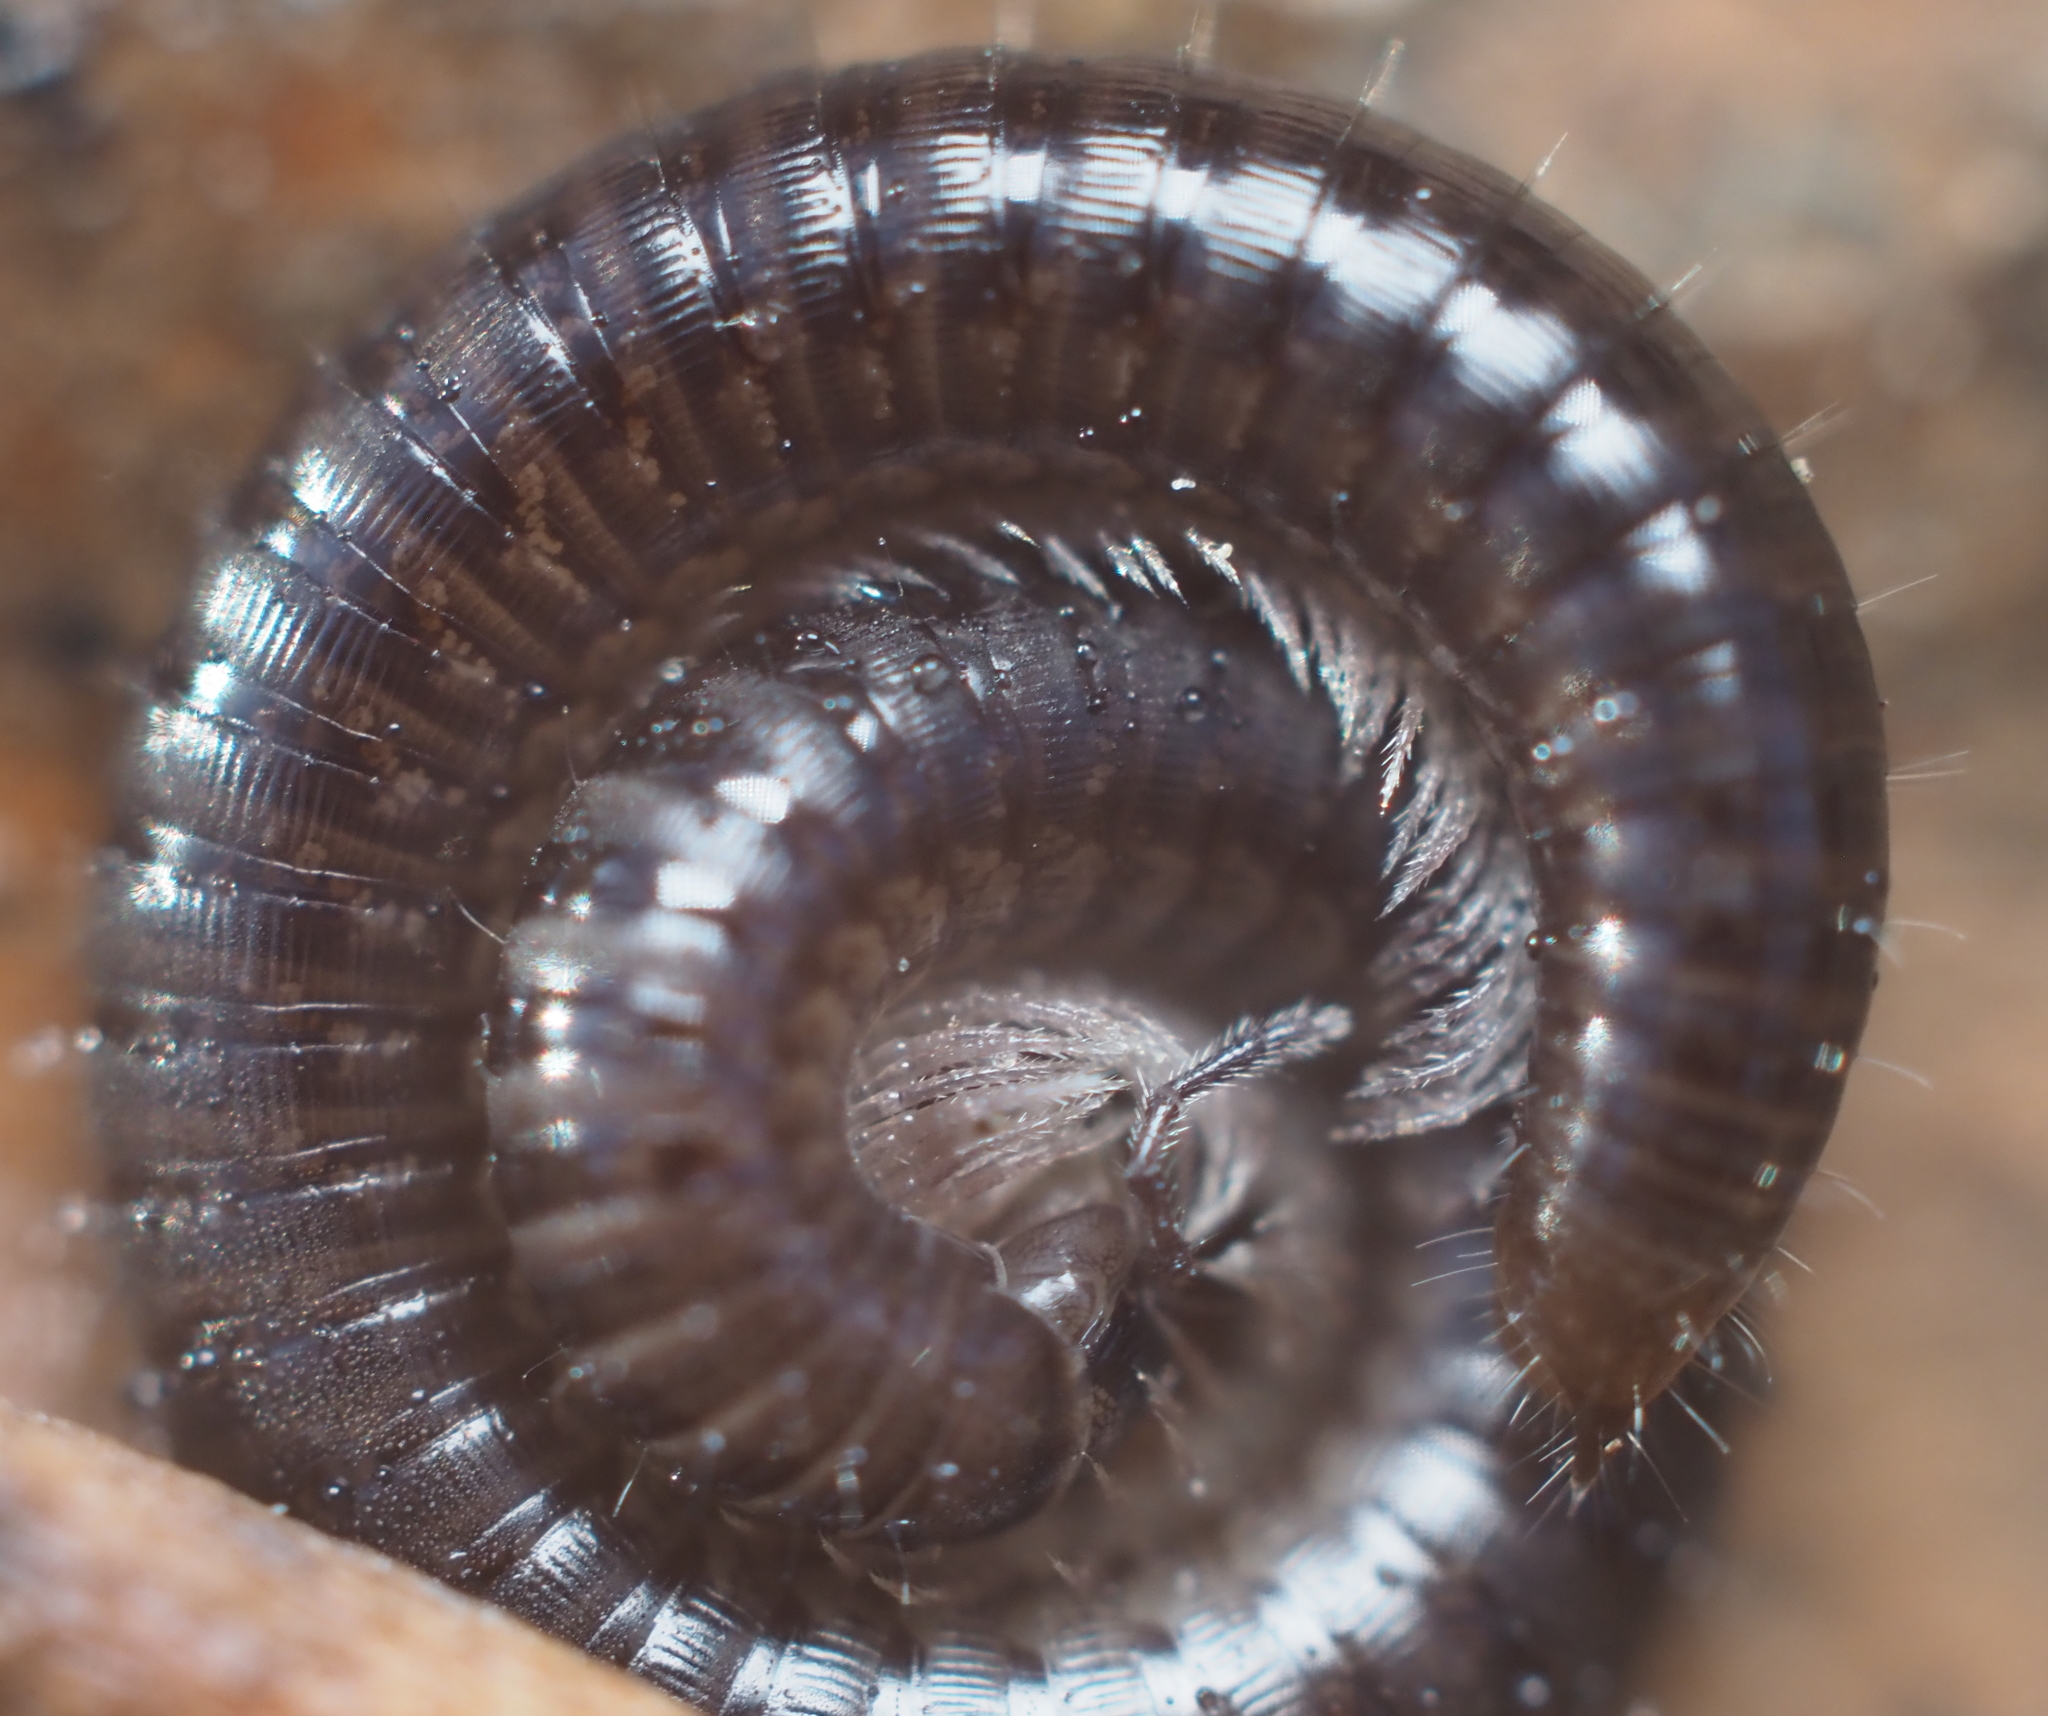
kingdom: Animalia
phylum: Arthropoda
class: Diplopoda
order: Julida
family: Julidae
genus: Ophyiulus
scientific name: Ophyiulus pilosus
